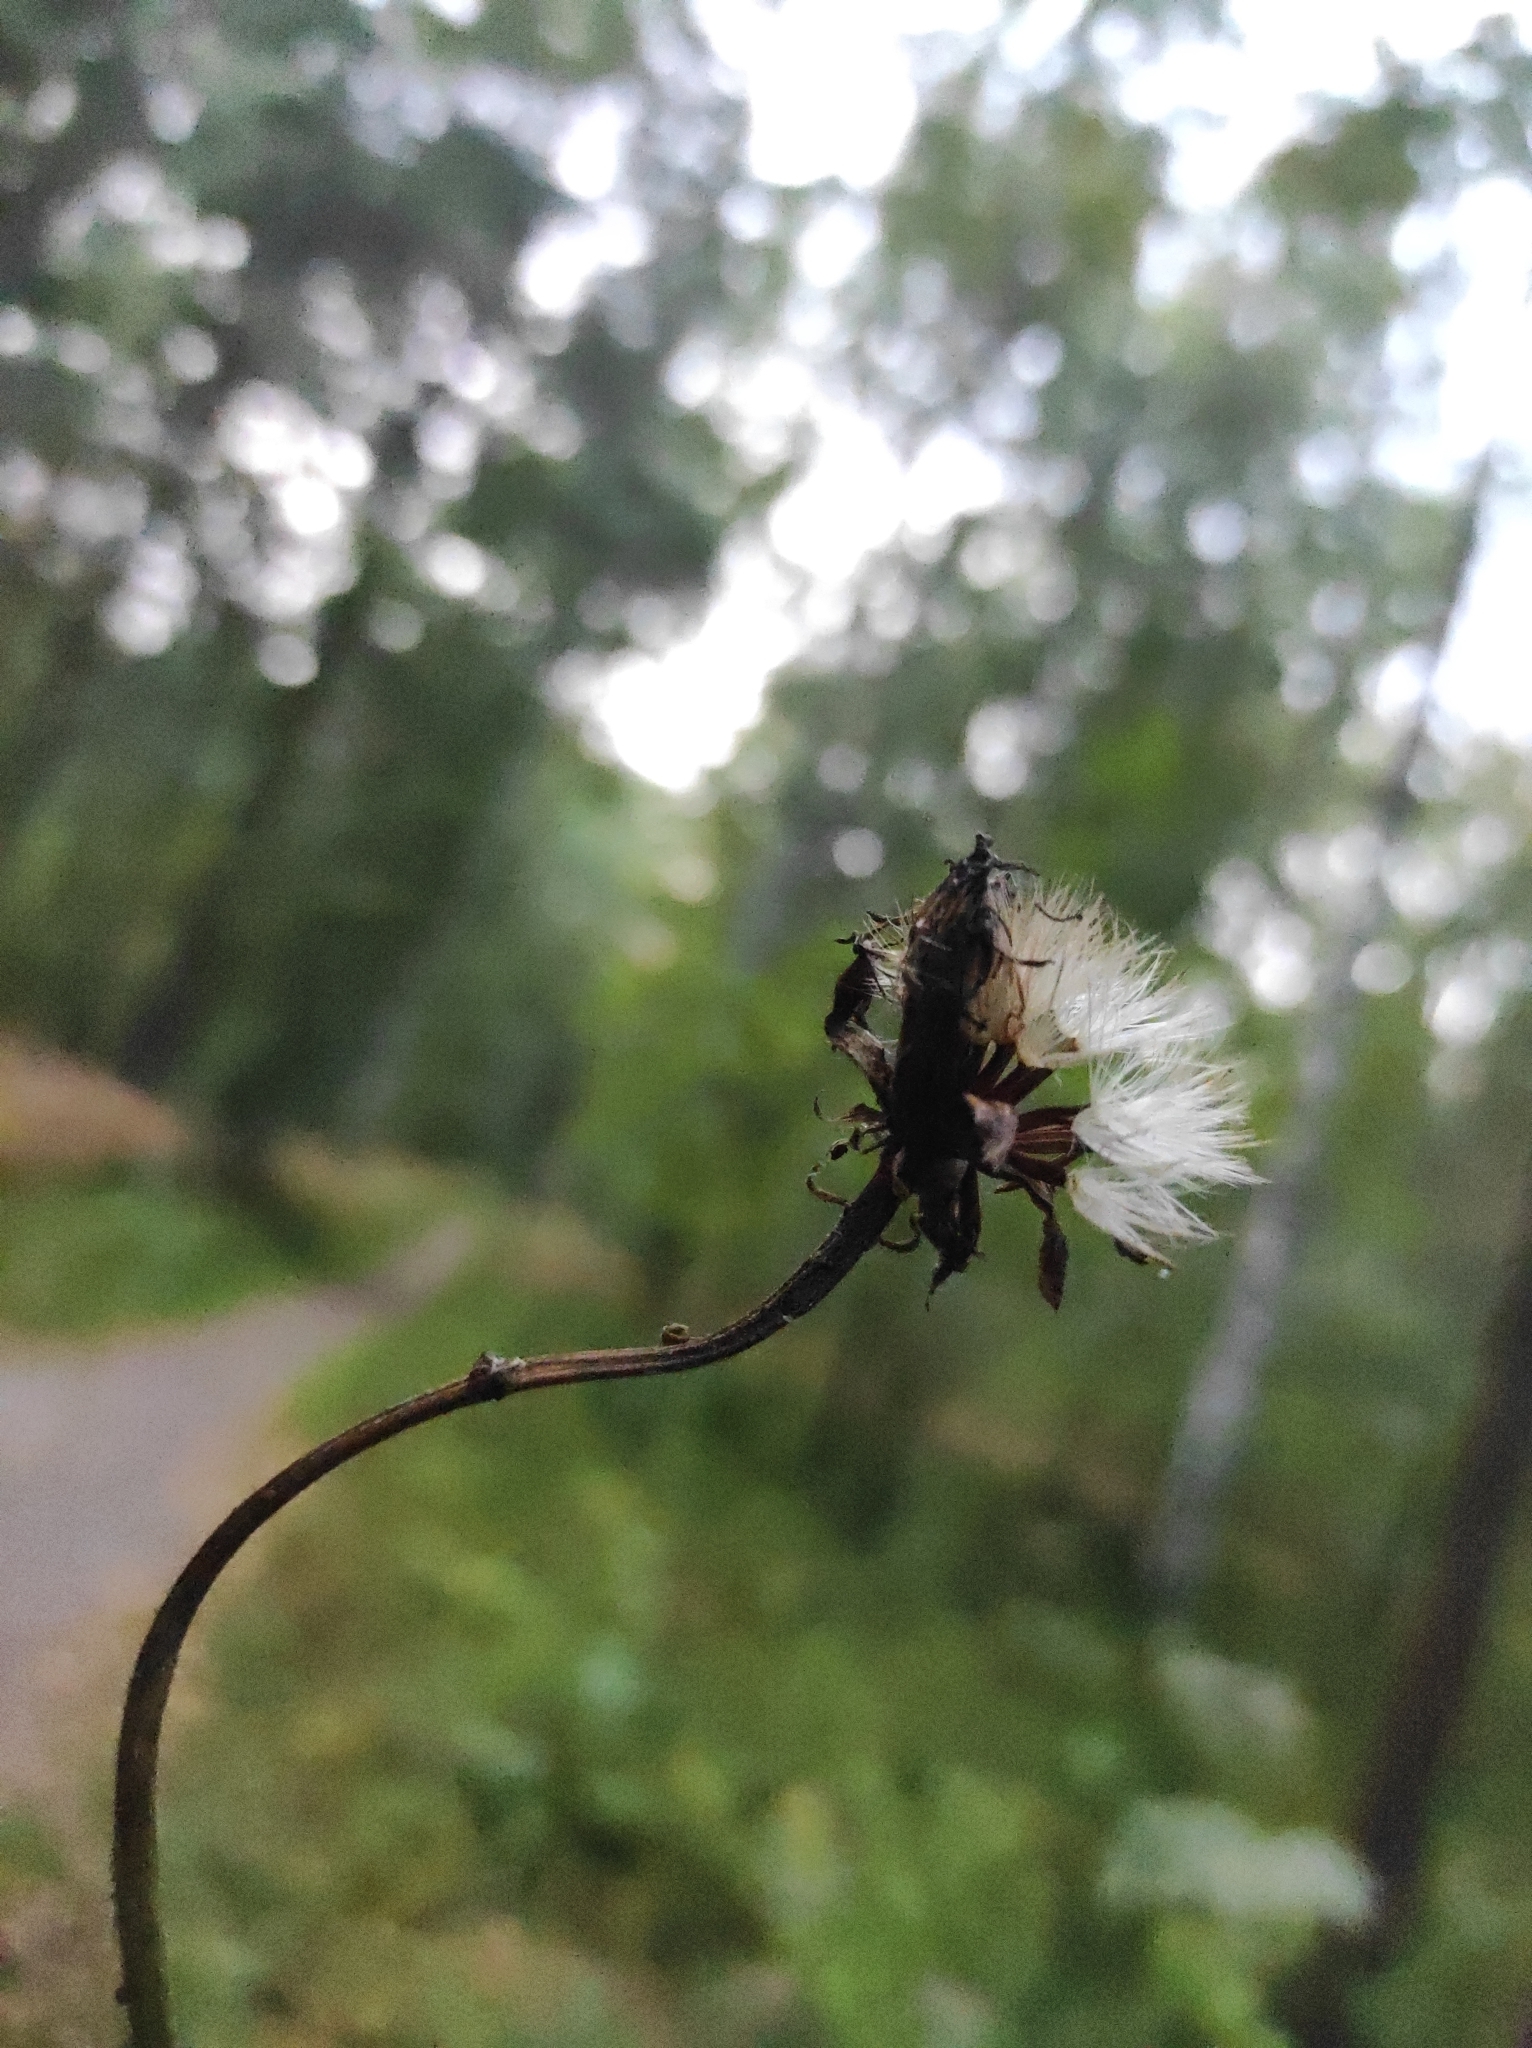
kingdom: Plantae
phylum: Tracheophyta
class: Magnoliopsida
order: Asterales
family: Asteraceae
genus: Crepis
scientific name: Crepis sibirica
